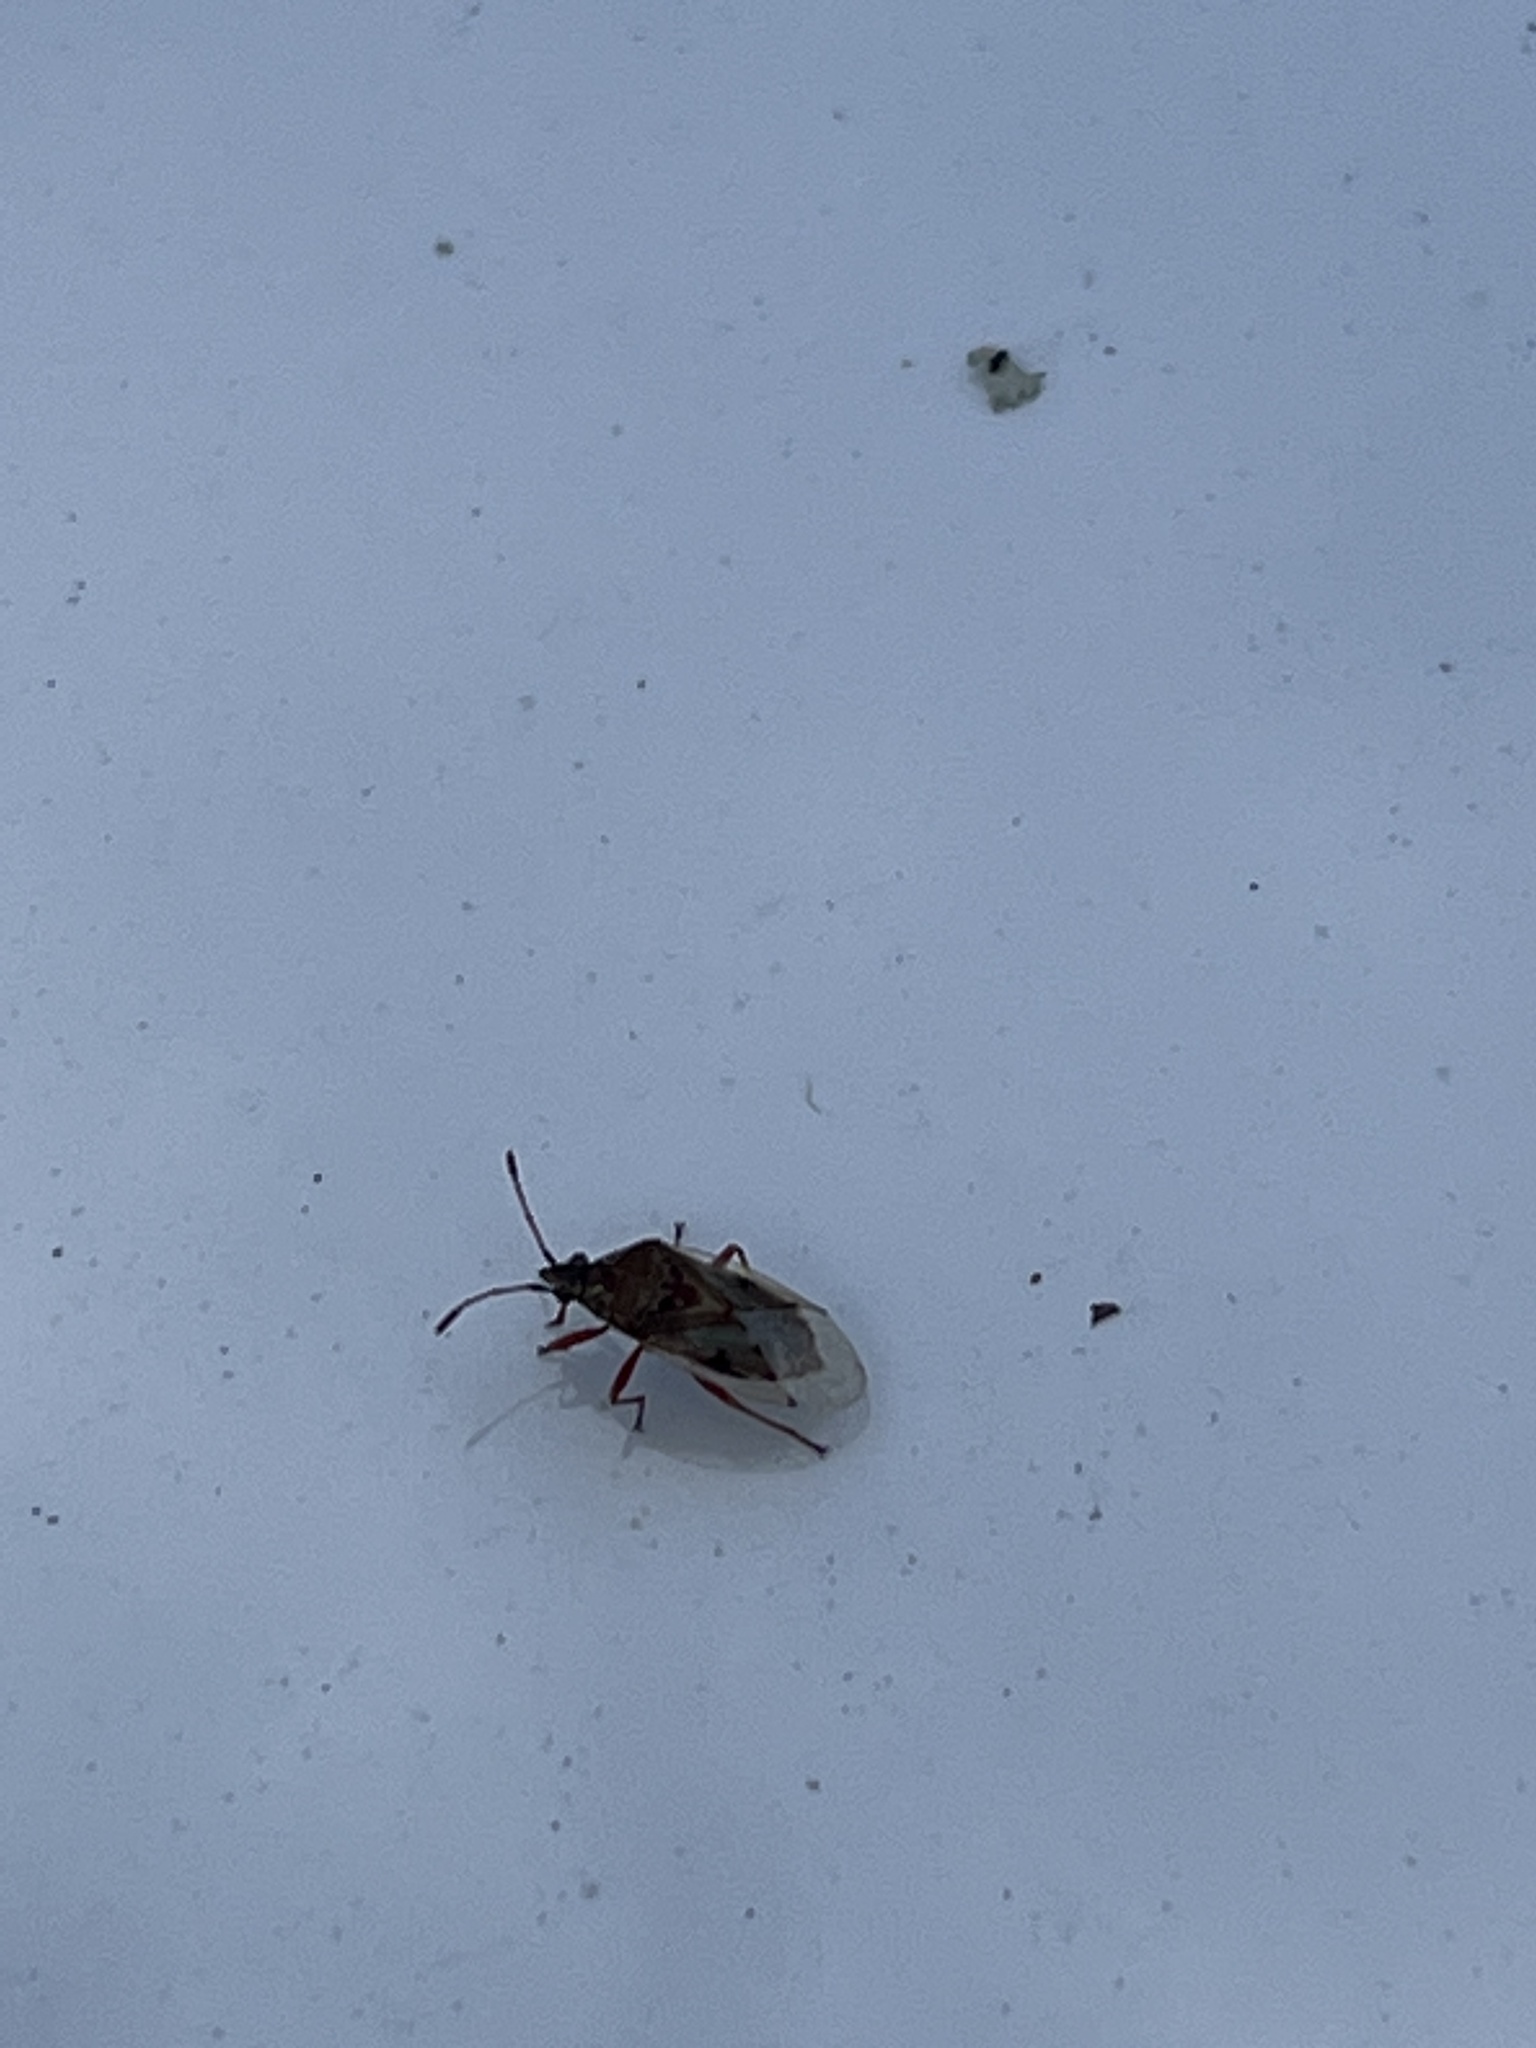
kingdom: Animalia
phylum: Arthropoda
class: Insecta
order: Hemiptera
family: Lygaeidae
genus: Kleidocerys
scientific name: Kleidocerys resedae
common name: Birch catkin bug
